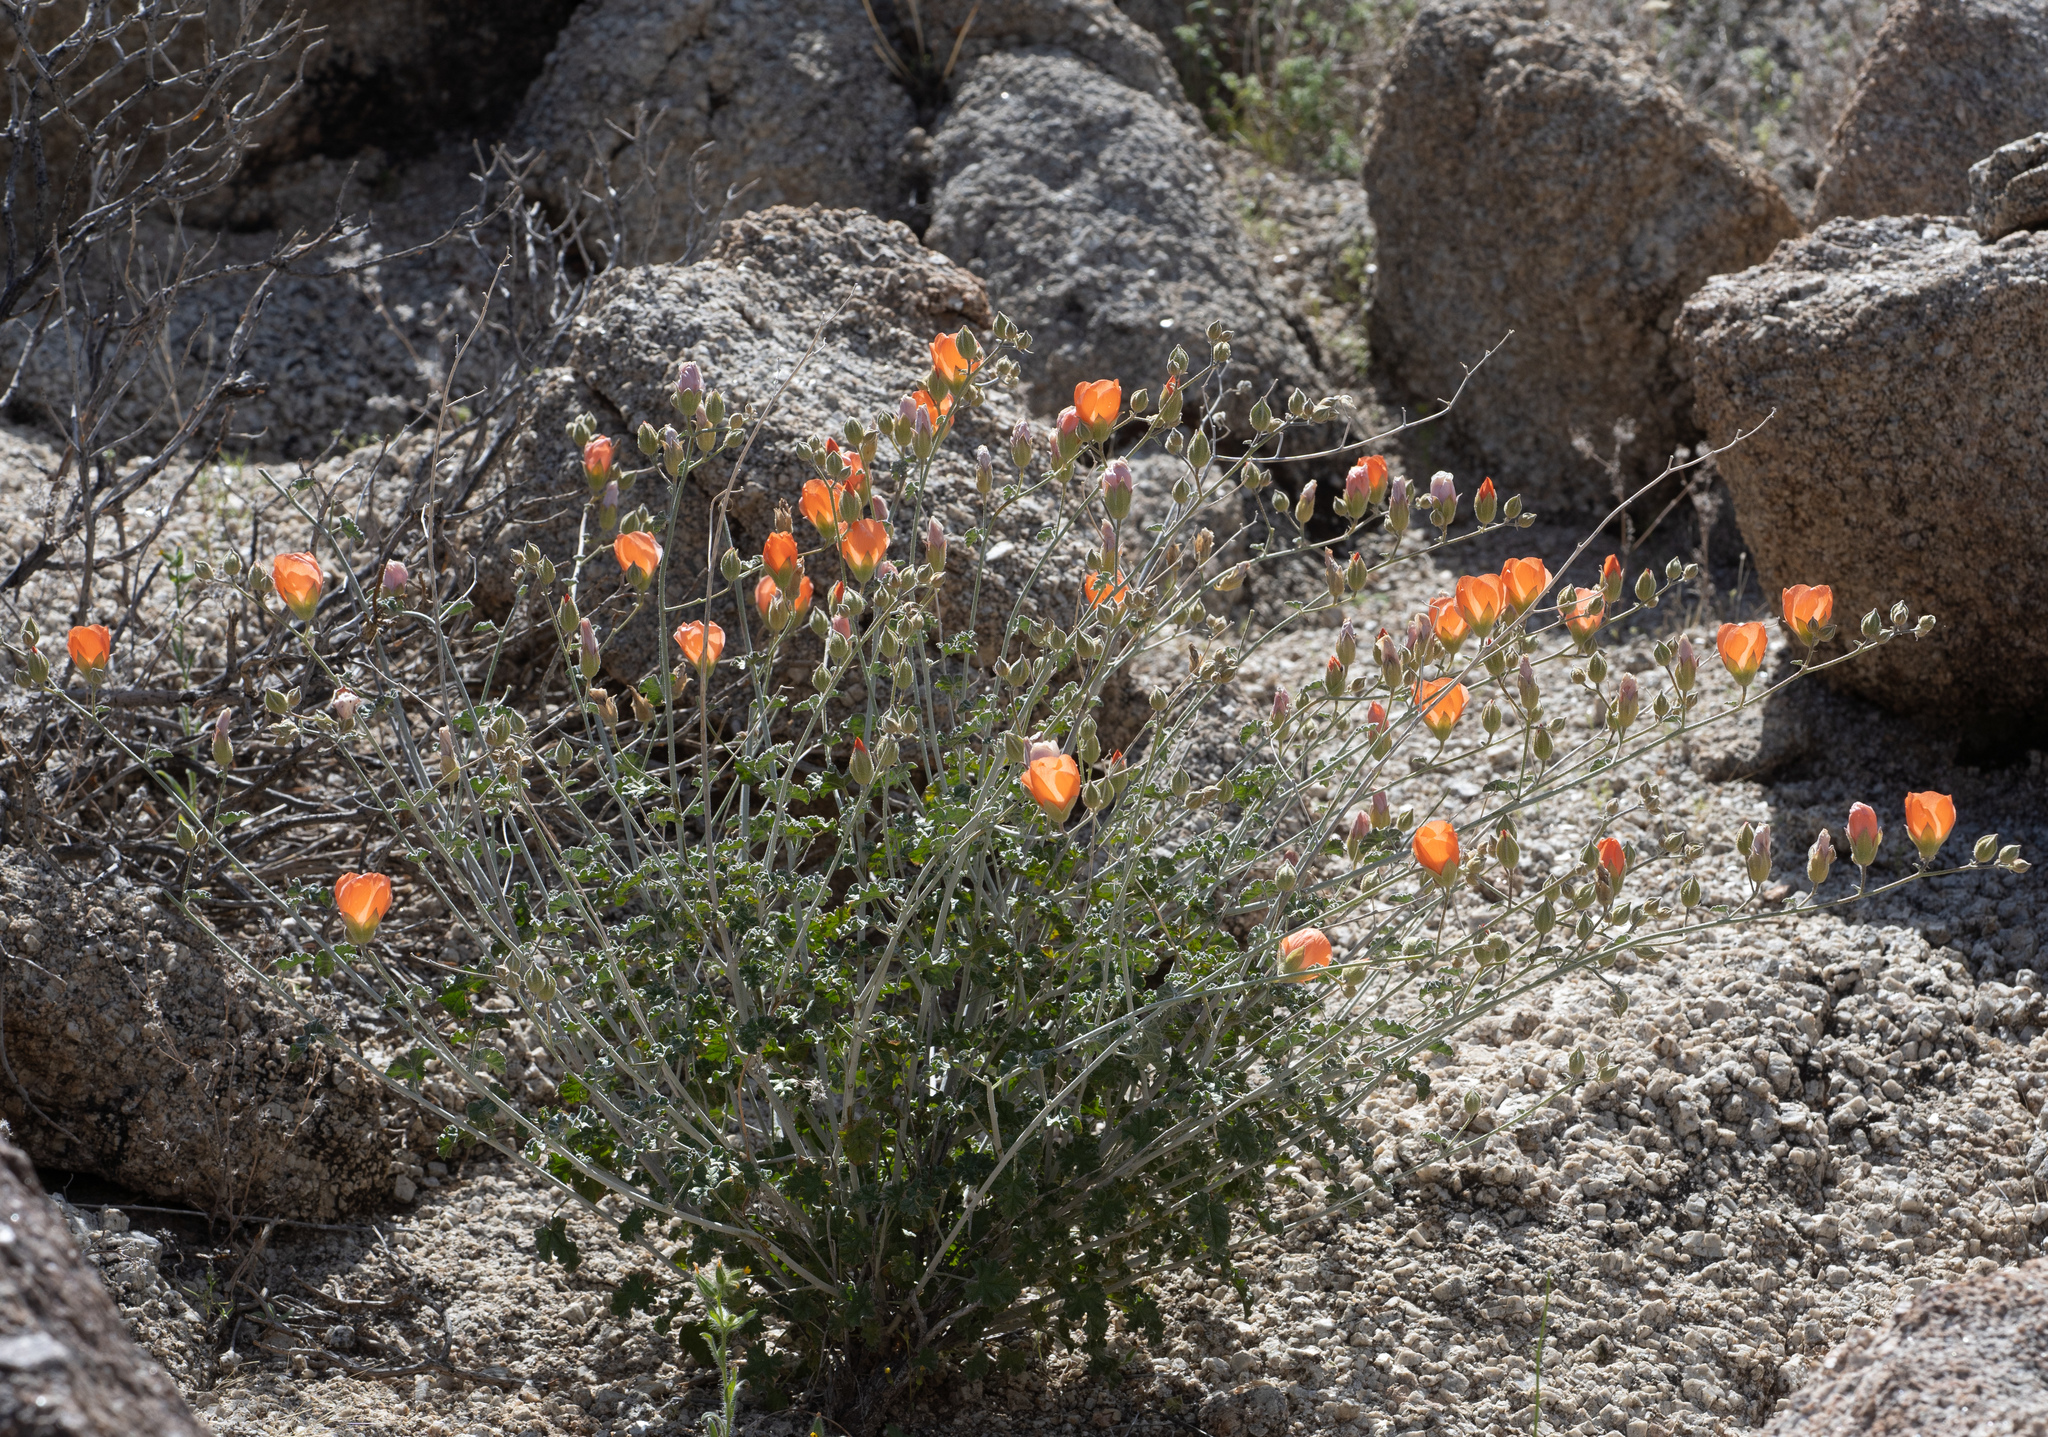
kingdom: Plantae
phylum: Tracheophyta
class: Magnoliopsida
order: Malvales
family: Malvaceae
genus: Sphaeralcea
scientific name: Sphaeralcea ambigua
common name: Apricot globe-mallow
